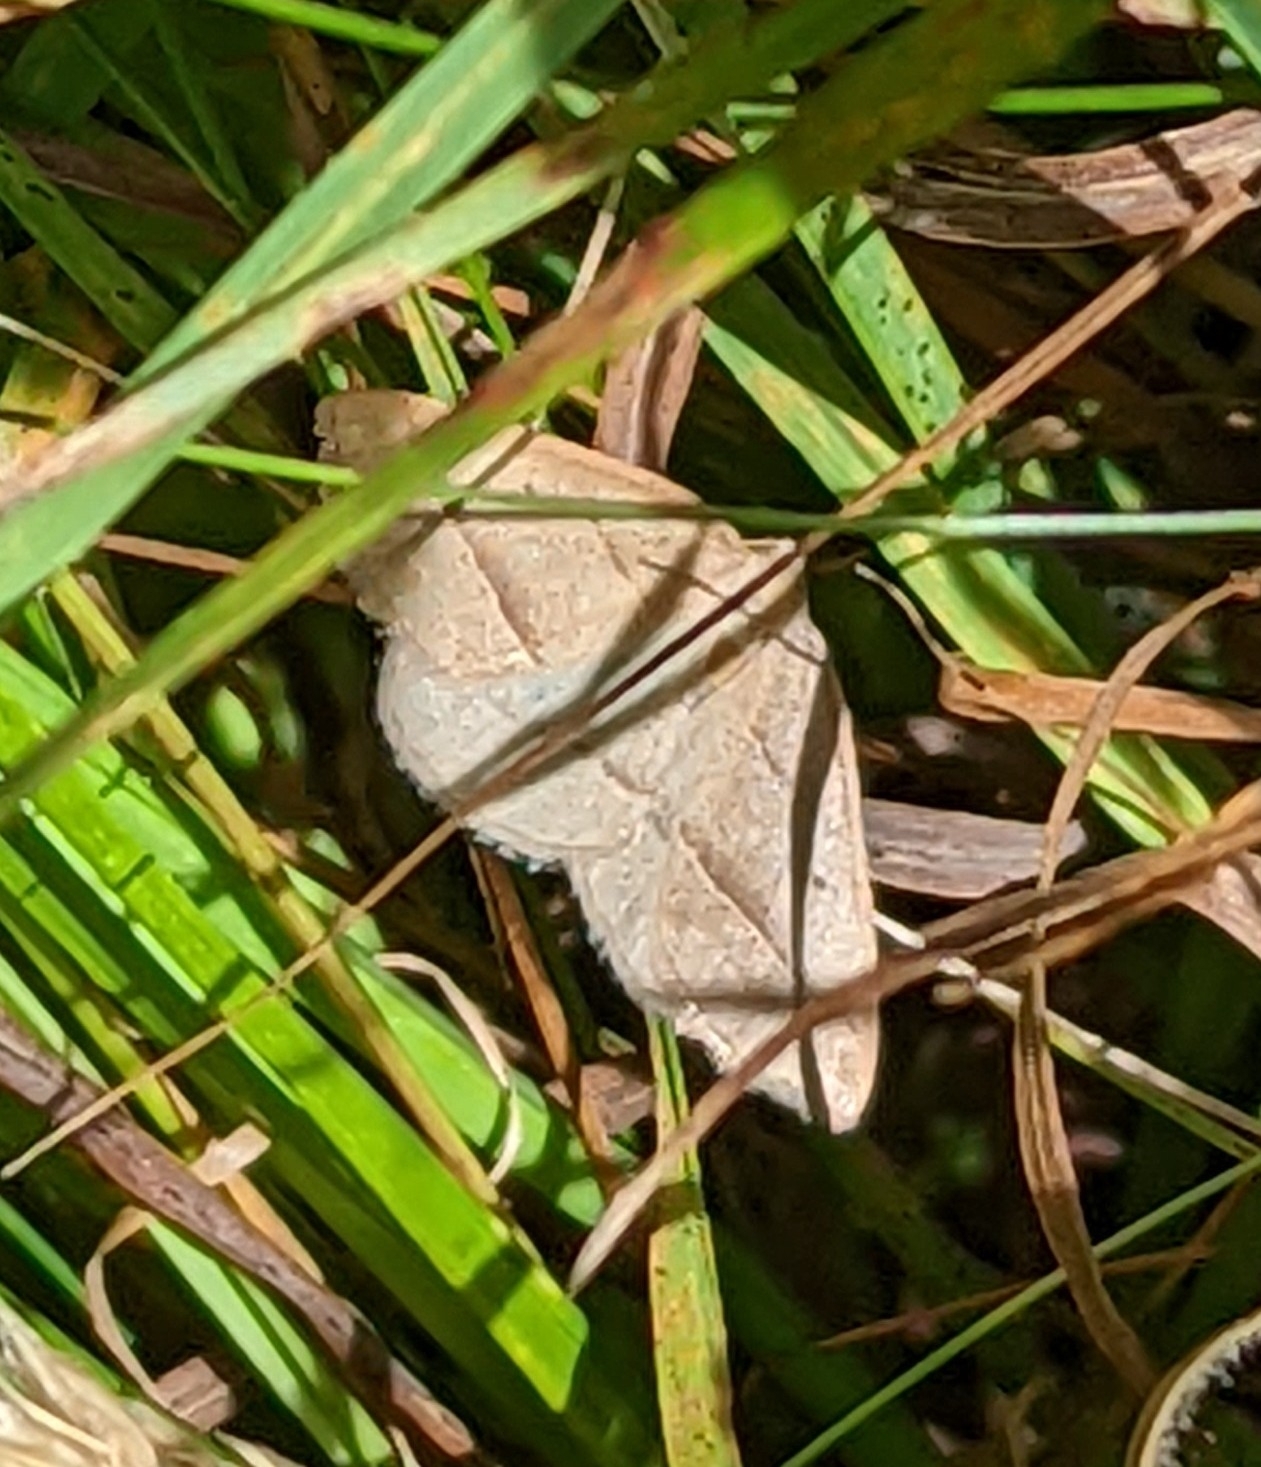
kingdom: Animalia
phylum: Arthropoda
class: Insecta
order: Lepidoptera
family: Pterophoridae
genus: Pterophorus
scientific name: Pterophorus Petrophora chlorosata
